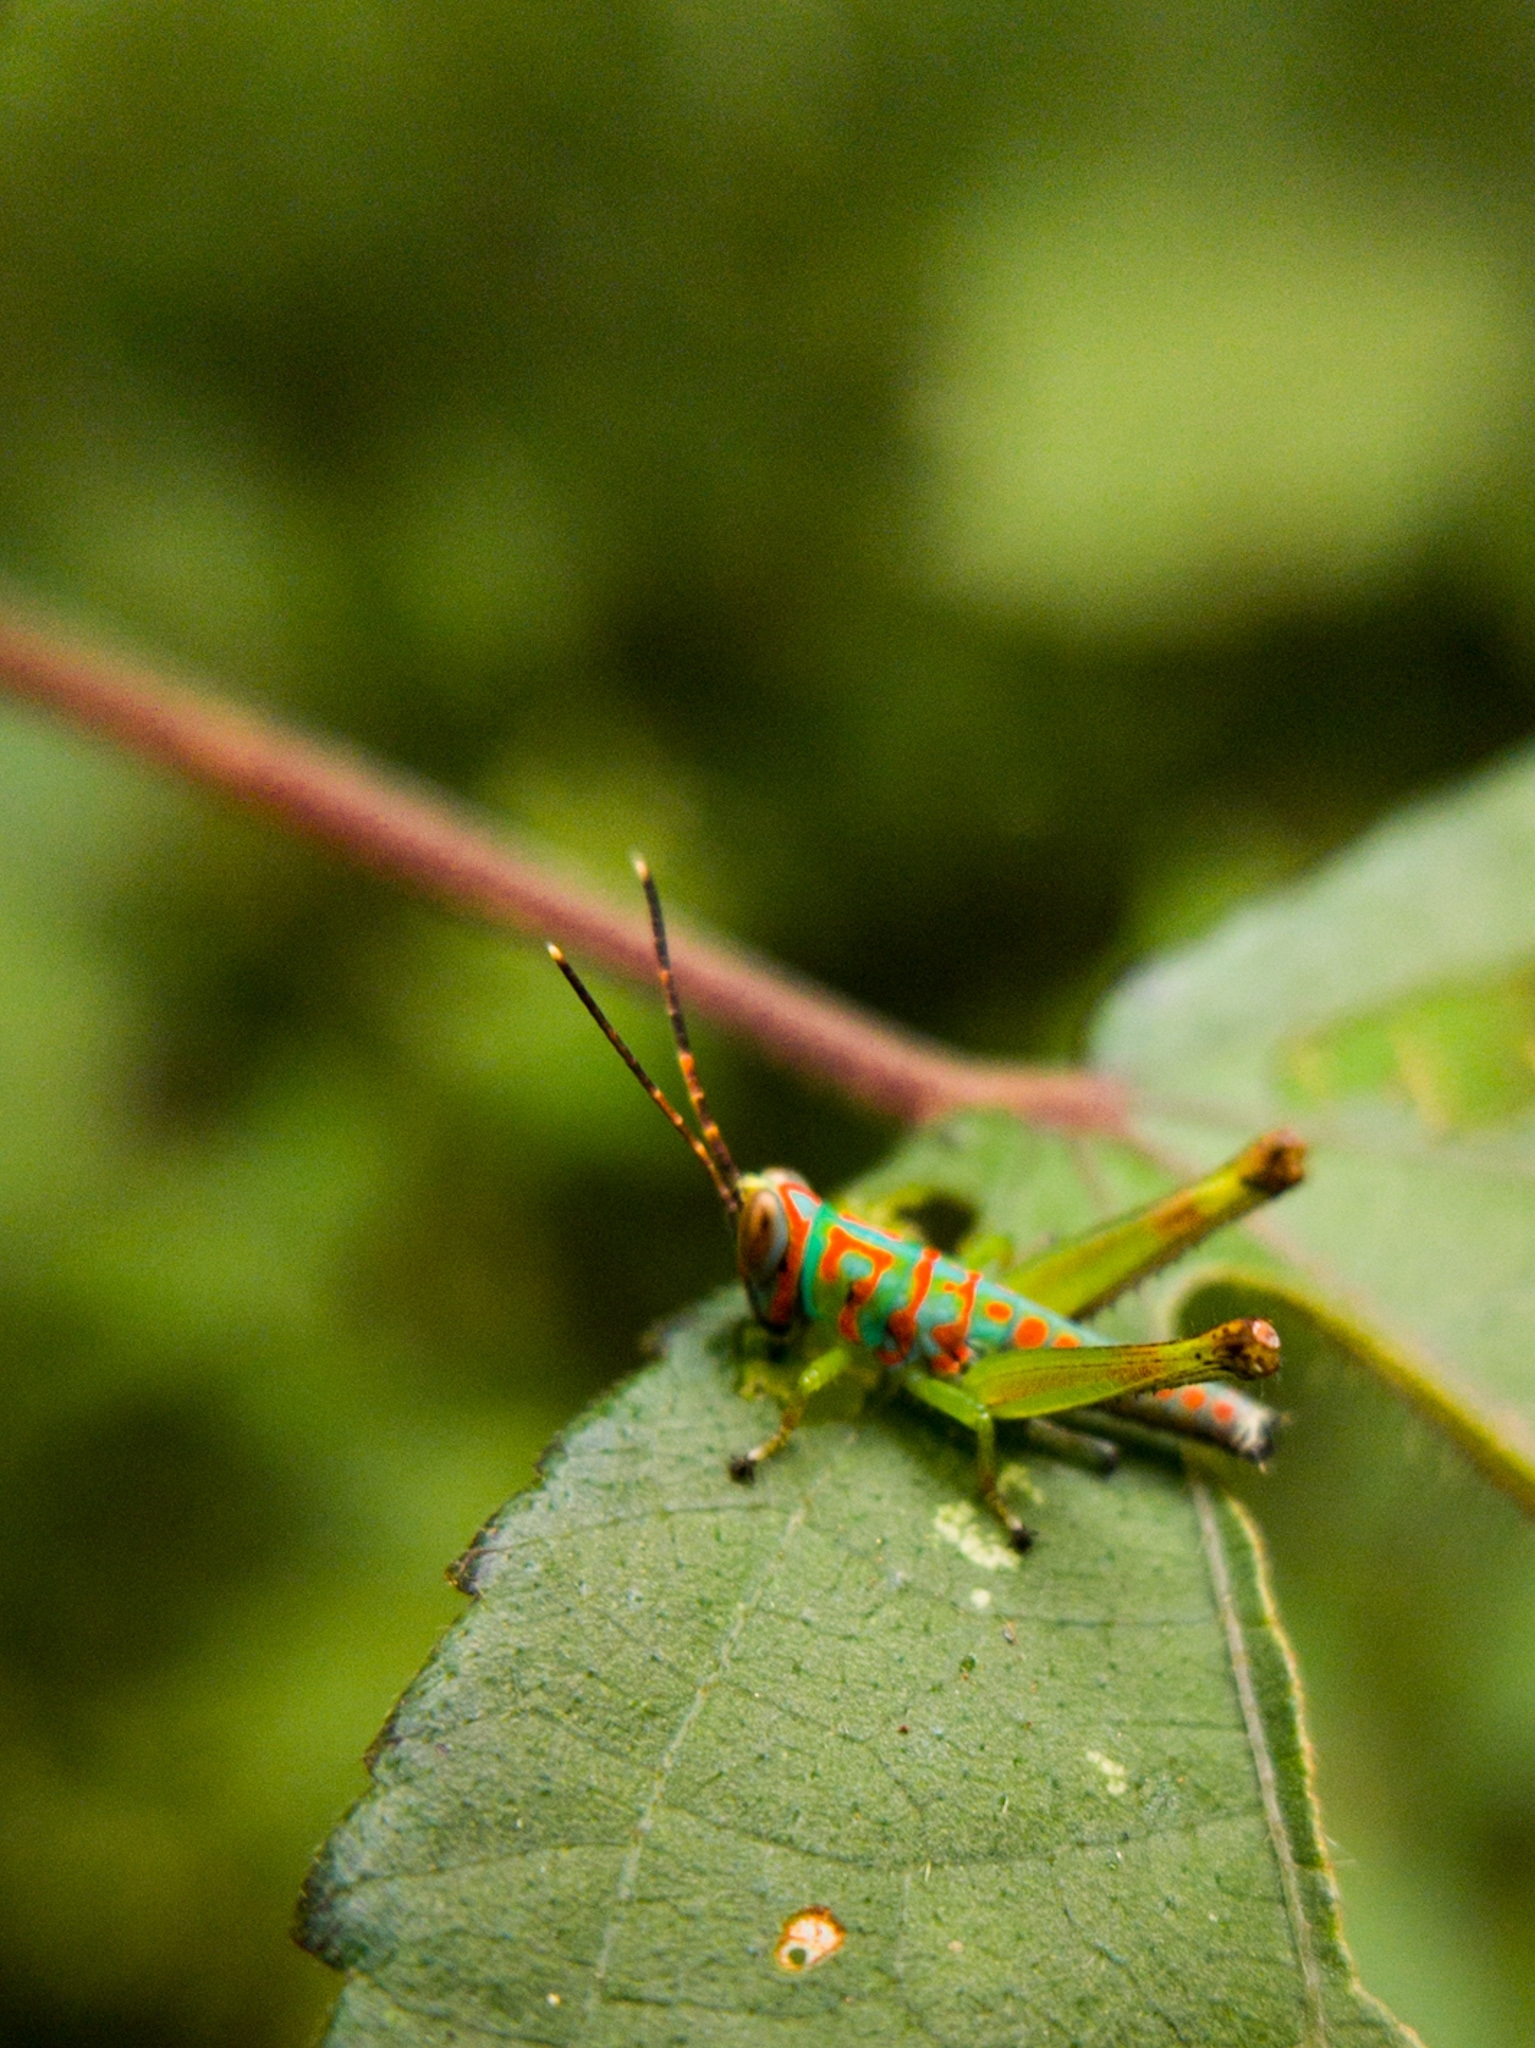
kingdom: Animalia
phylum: Arthropoda
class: Insecta
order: Orthoptera
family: Acrididae
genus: Pirithoicus
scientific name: Pirithoicus ophthalmicus
